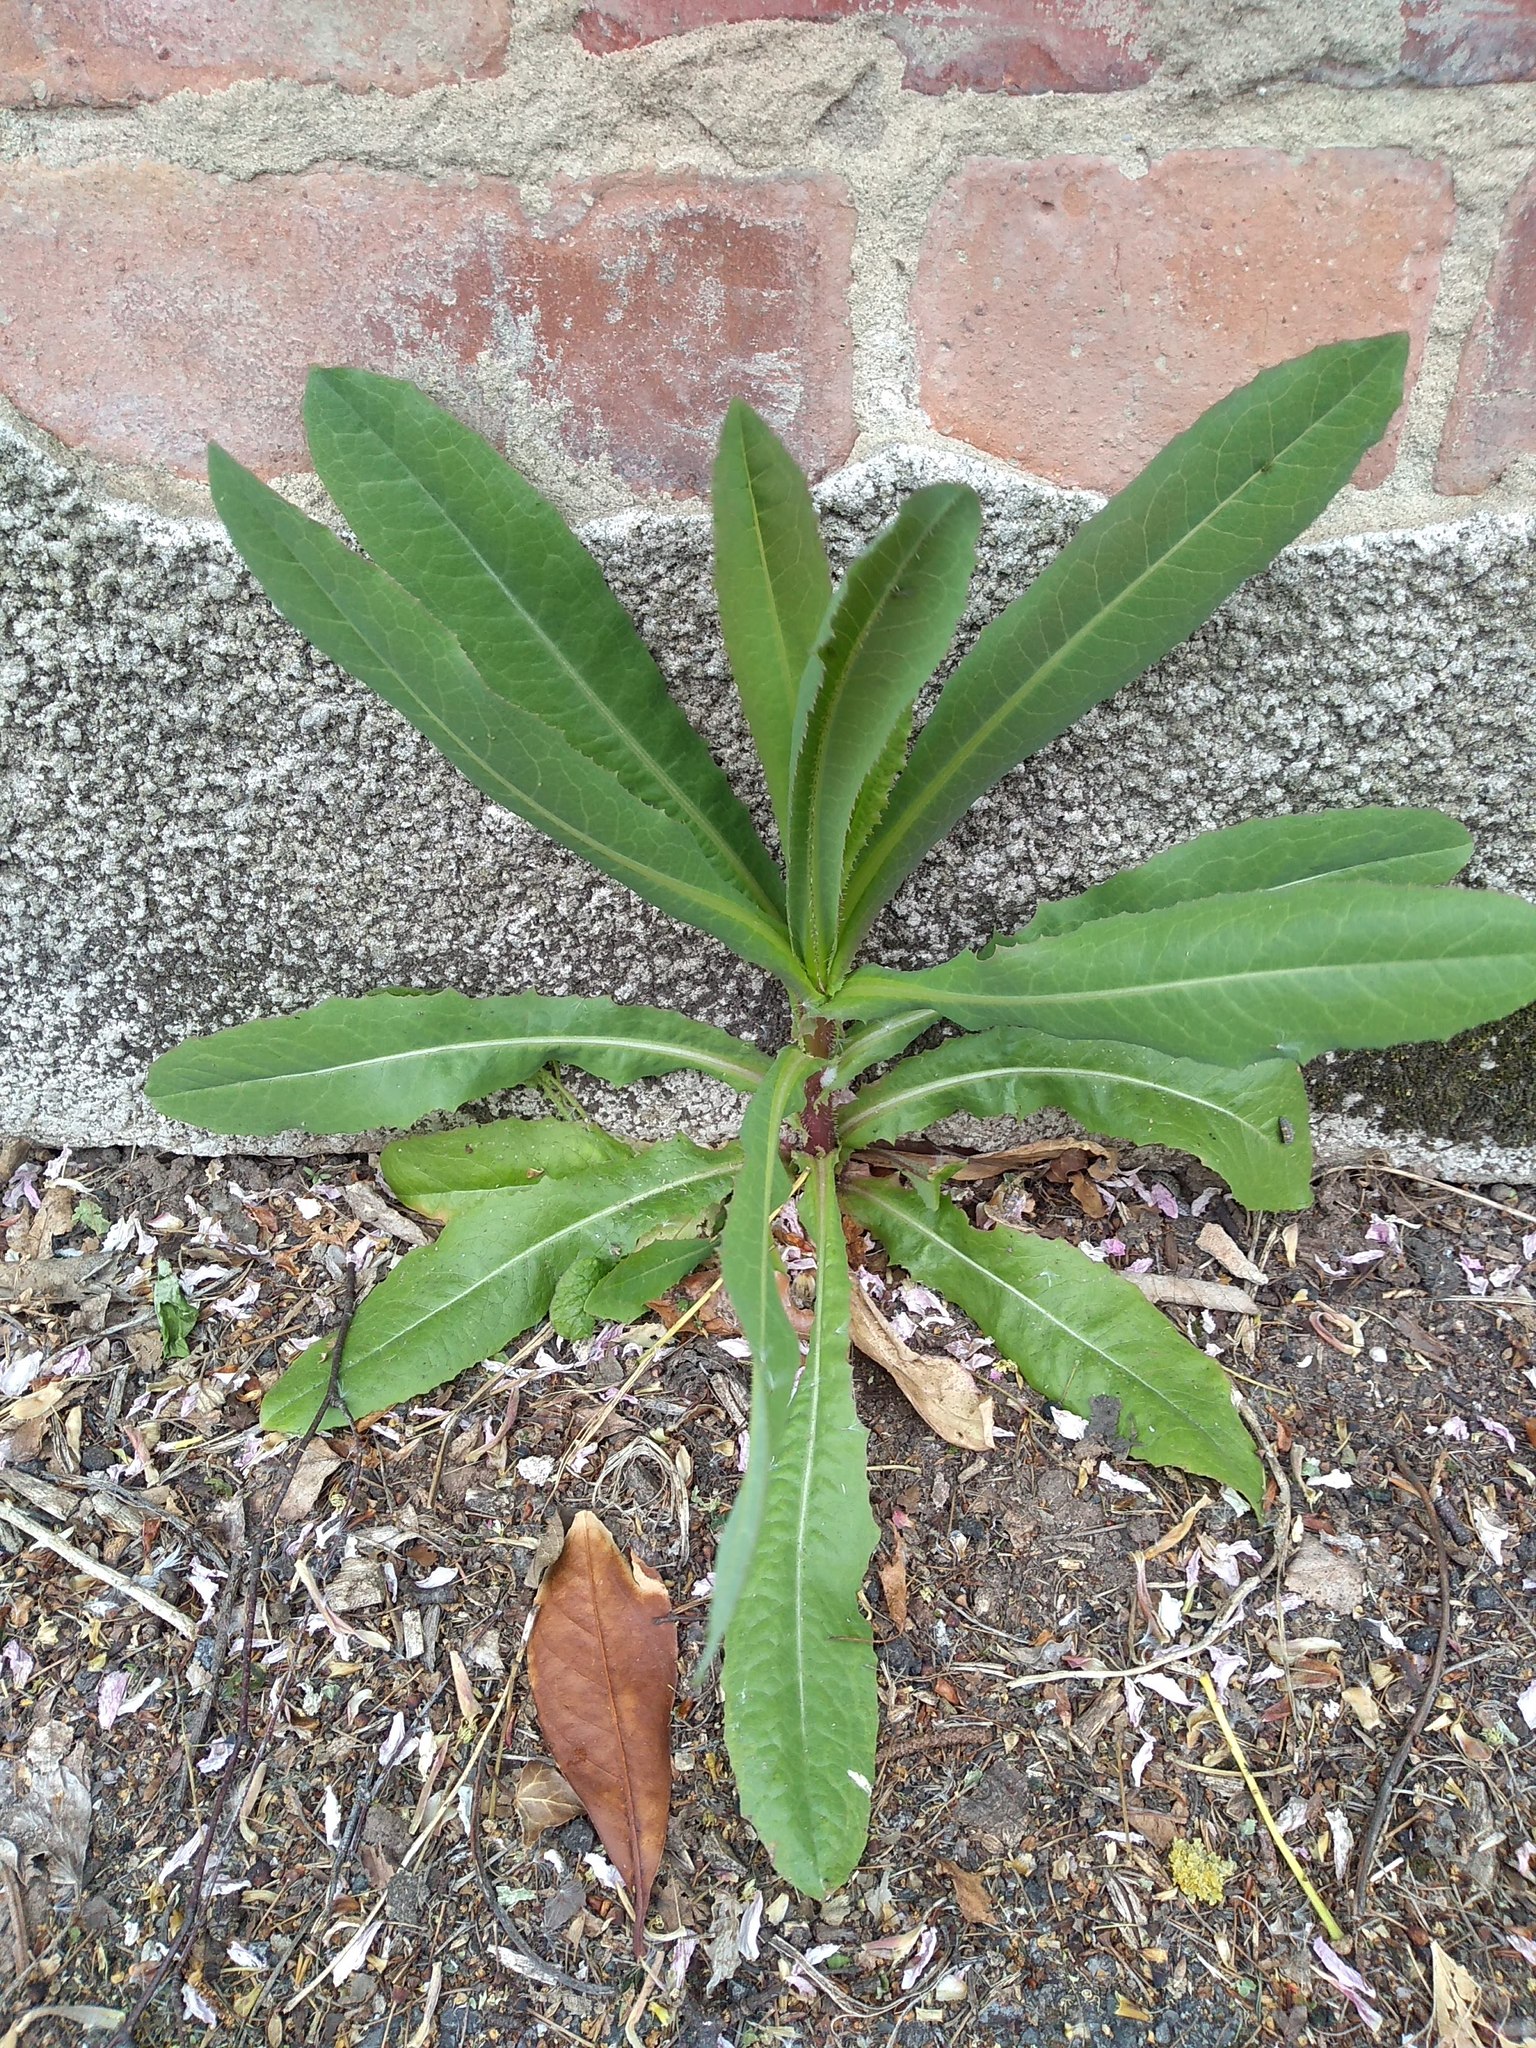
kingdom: Plantae
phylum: Tracheophyta
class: Magnoliopsida
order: Asterales
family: Asteraceae
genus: Lactuca
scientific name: Lactuca serriola
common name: Prickly lettuce
